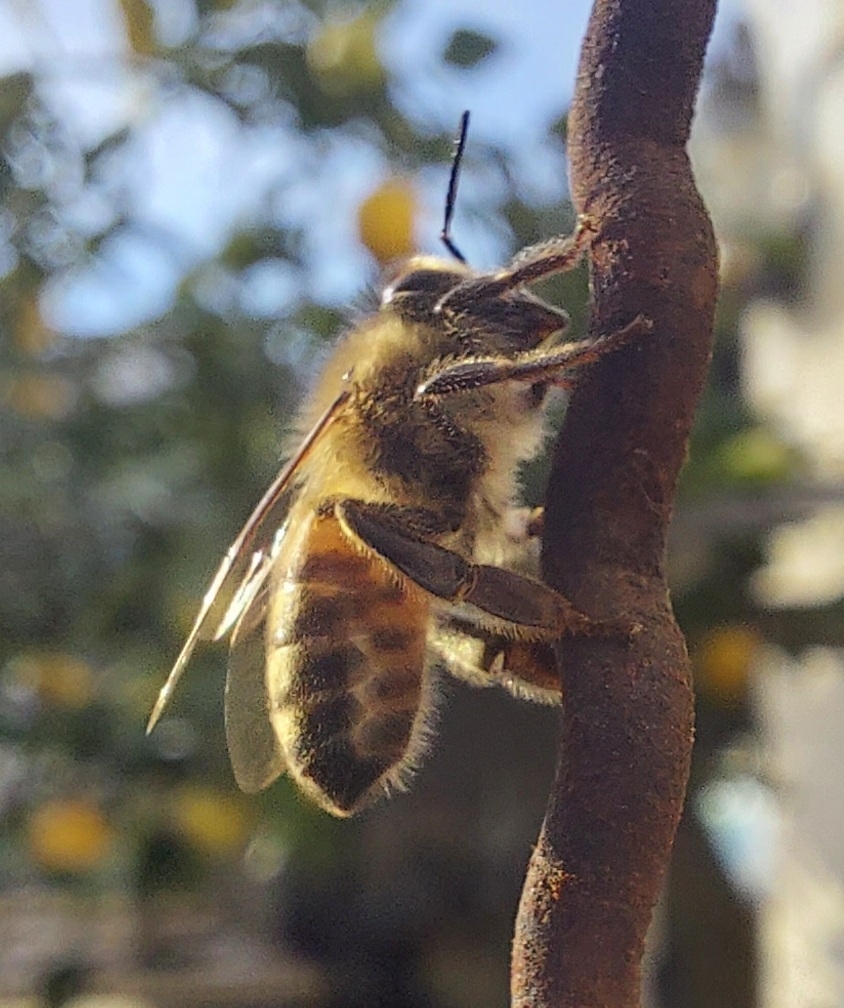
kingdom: Animalia
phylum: Arthropoda
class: Insecta
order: Hymenoptera
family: Apidae
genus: Apis
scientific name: Apis mellifera
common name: Honey bee
